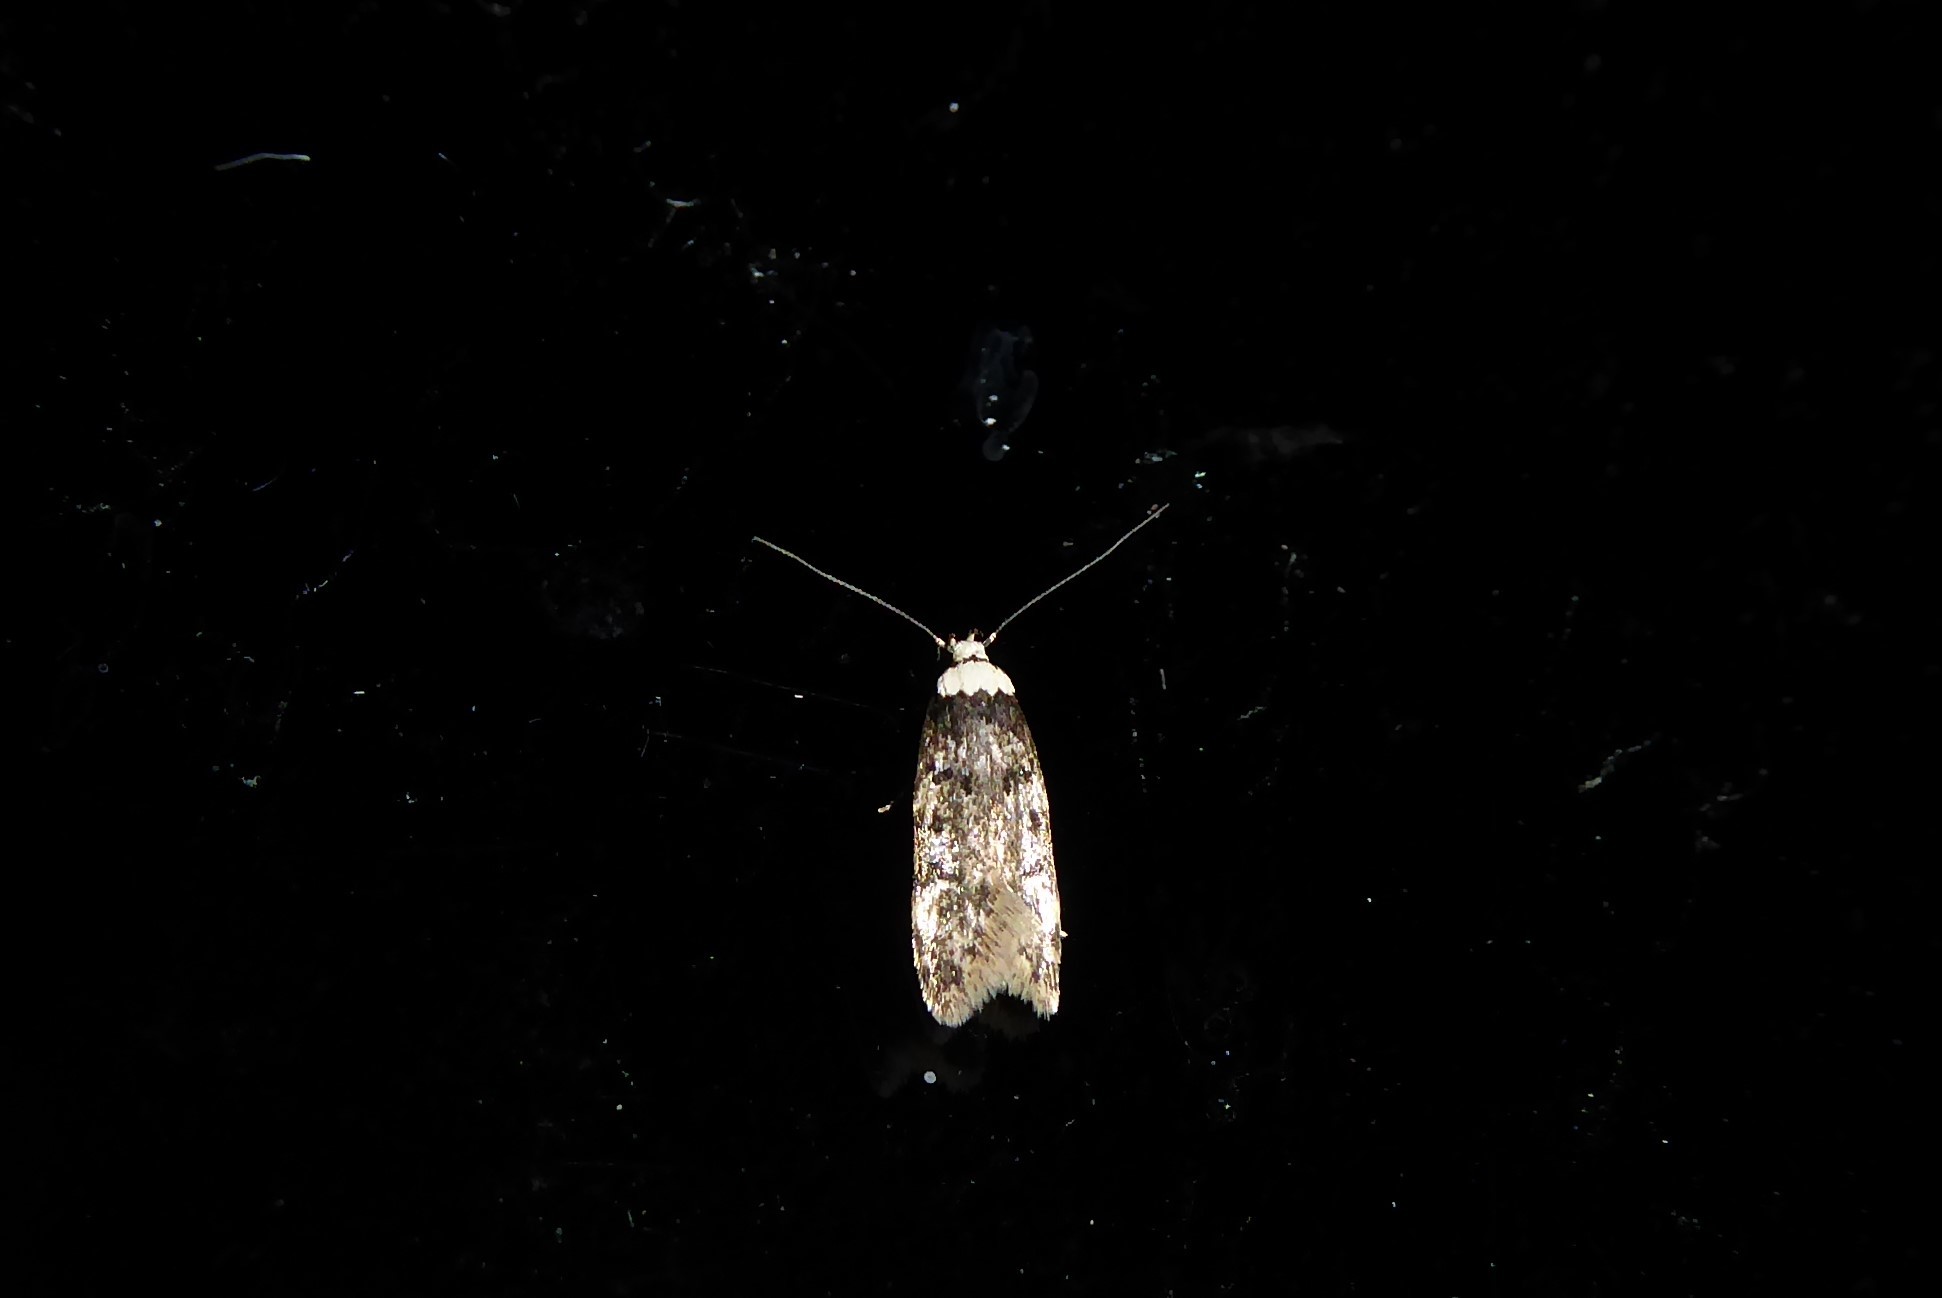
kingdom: Animalia
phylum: Arthropoda
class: Insecta
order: Lepidoptera
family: Oecophoridae
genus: Endrosis
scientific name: Endrosis sarcitrella
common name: White-shouldered house moth
